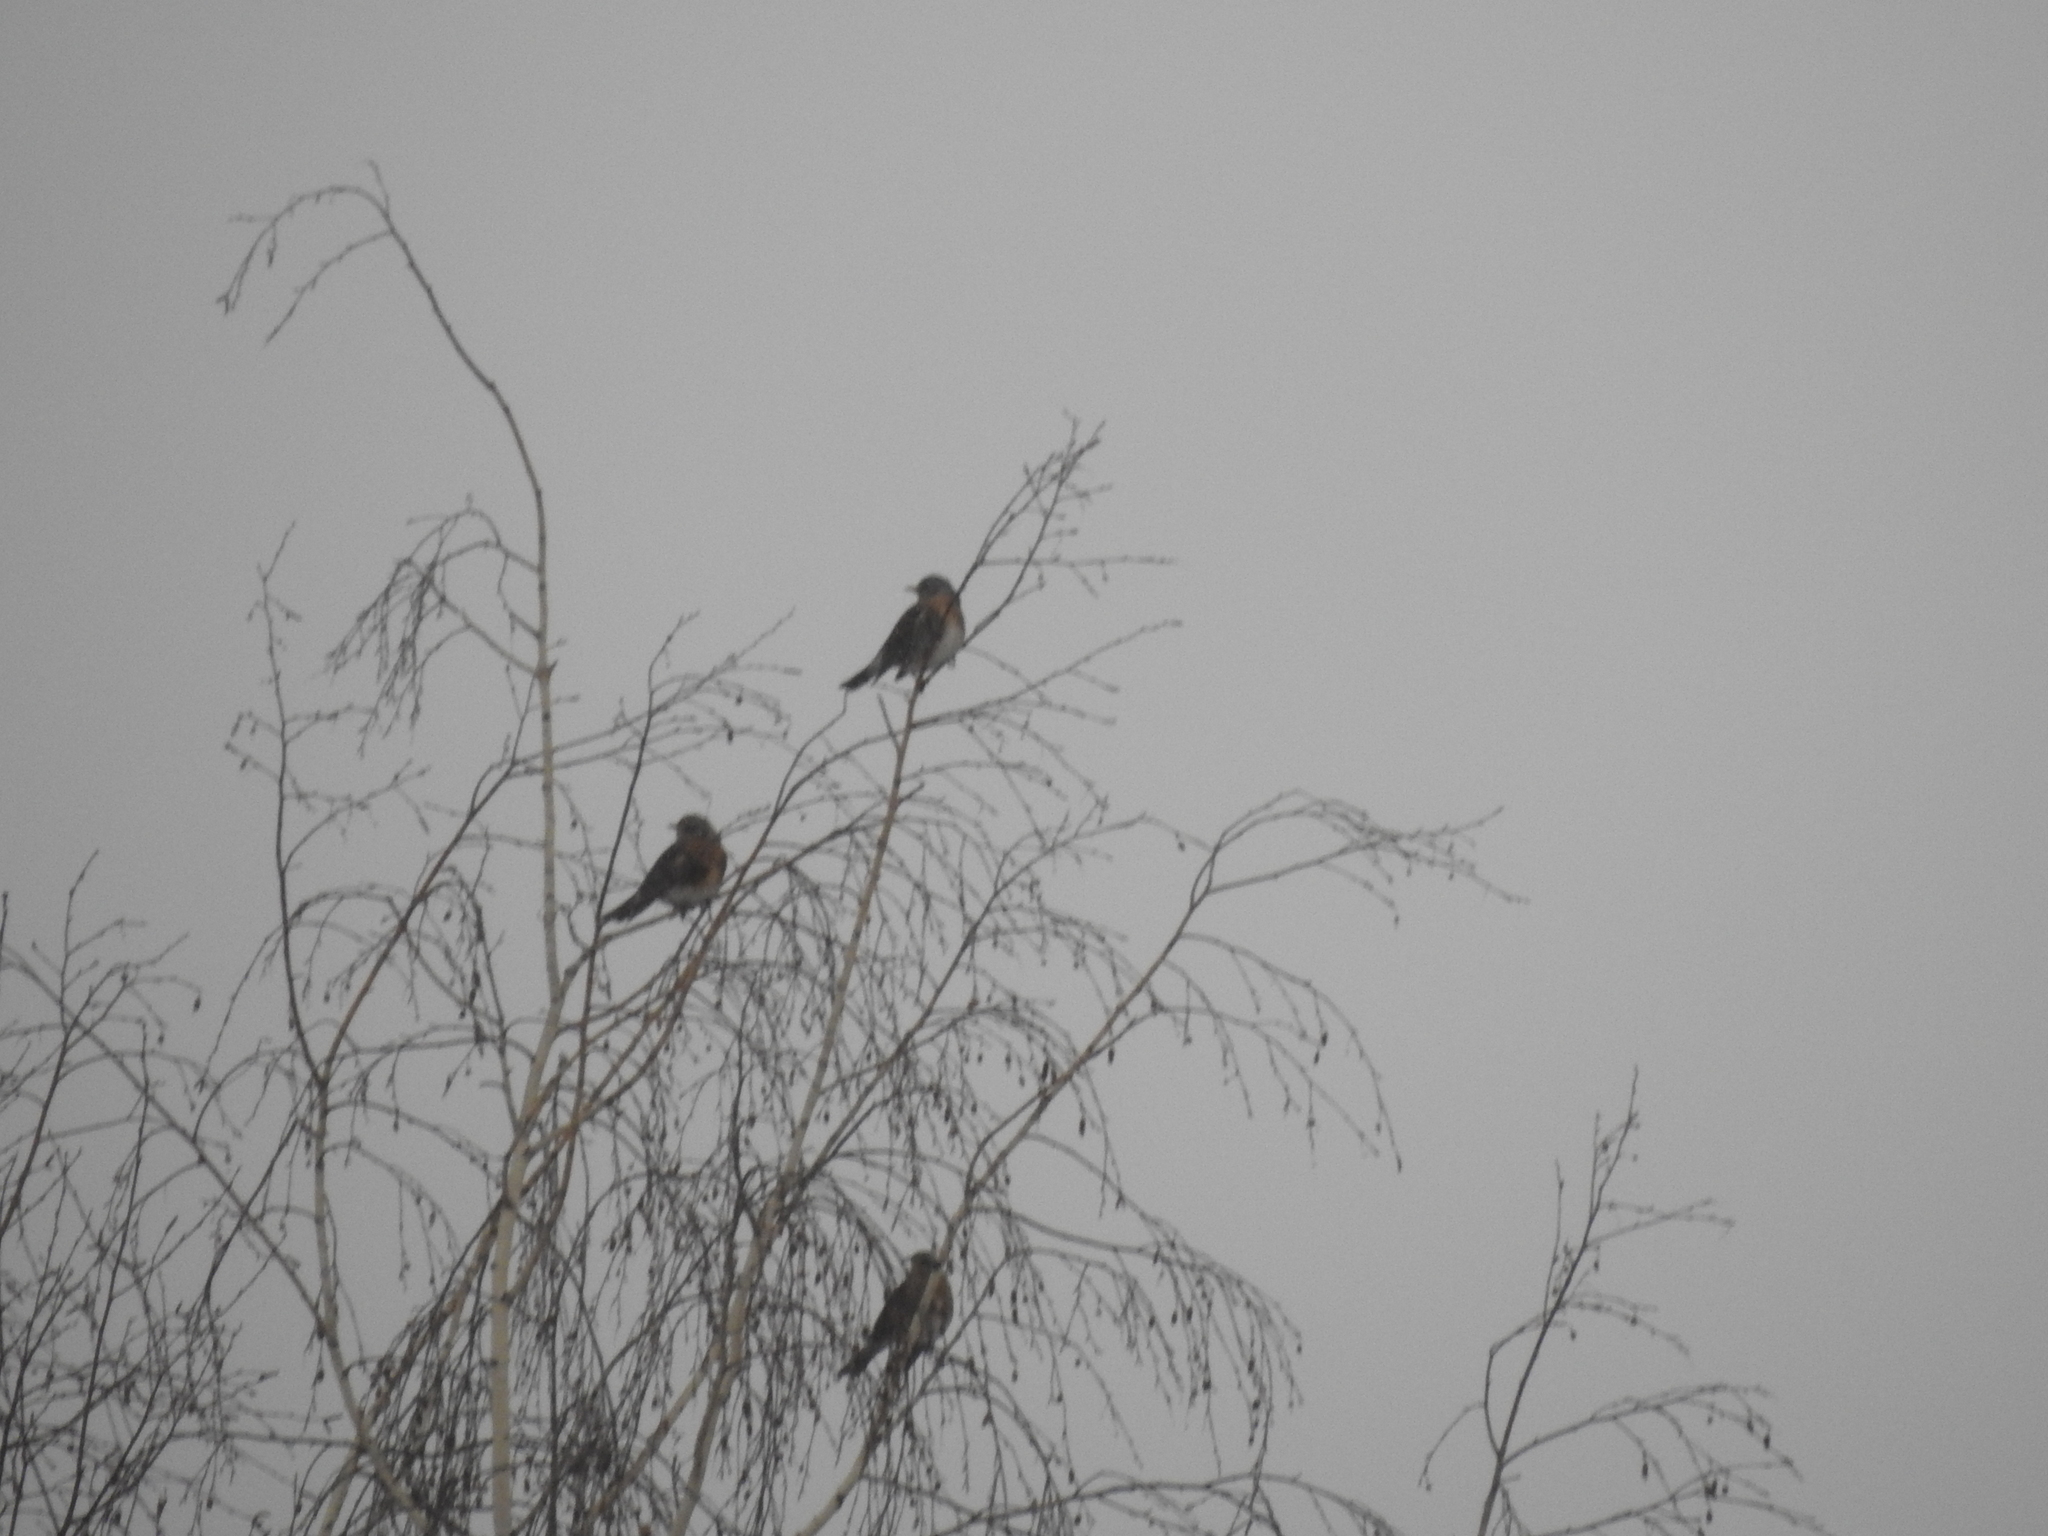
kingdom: Animalia
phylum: Chordata
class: Aves
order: Passeriformes
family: Turdidae
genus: Turdus
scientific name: Turdus pilaris
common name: Fieldfare
